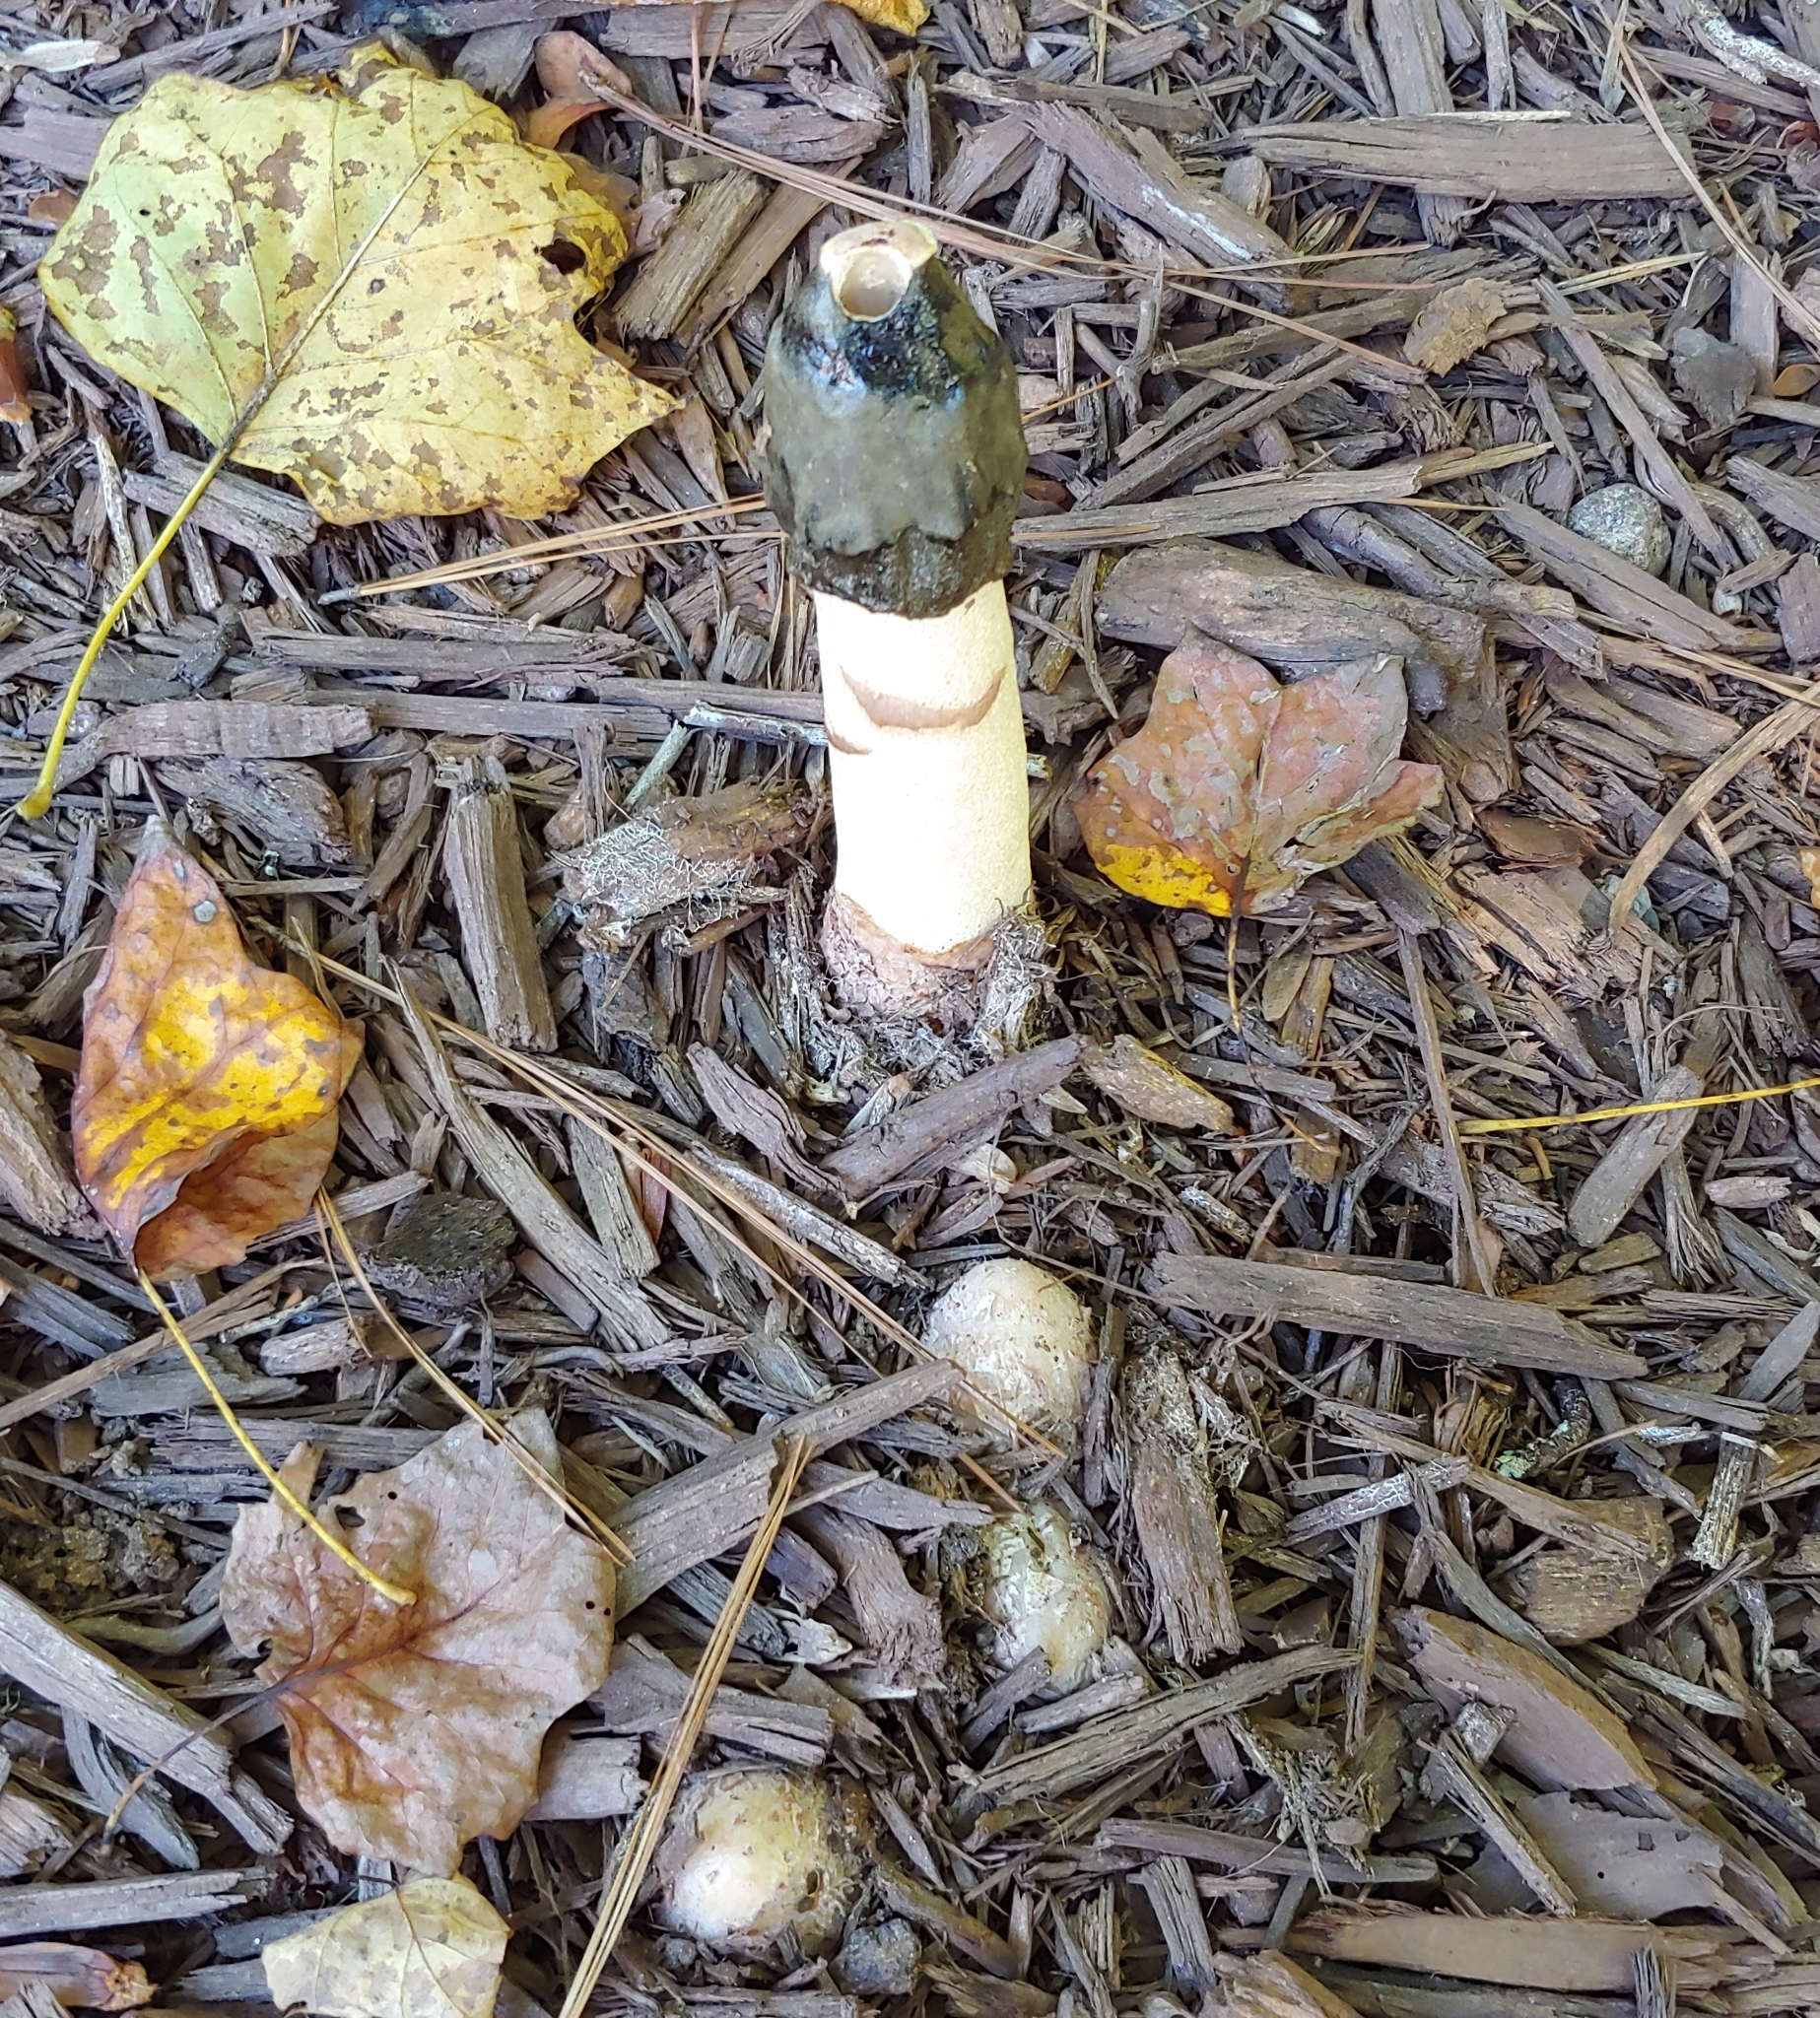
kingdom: Fungi
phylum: Basidiomycota
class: Agaricomycetes
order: Phallales
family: Phallaceae
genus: Phallus
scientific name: Phallus ravenelii
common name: Ravenel's stinkhorn
